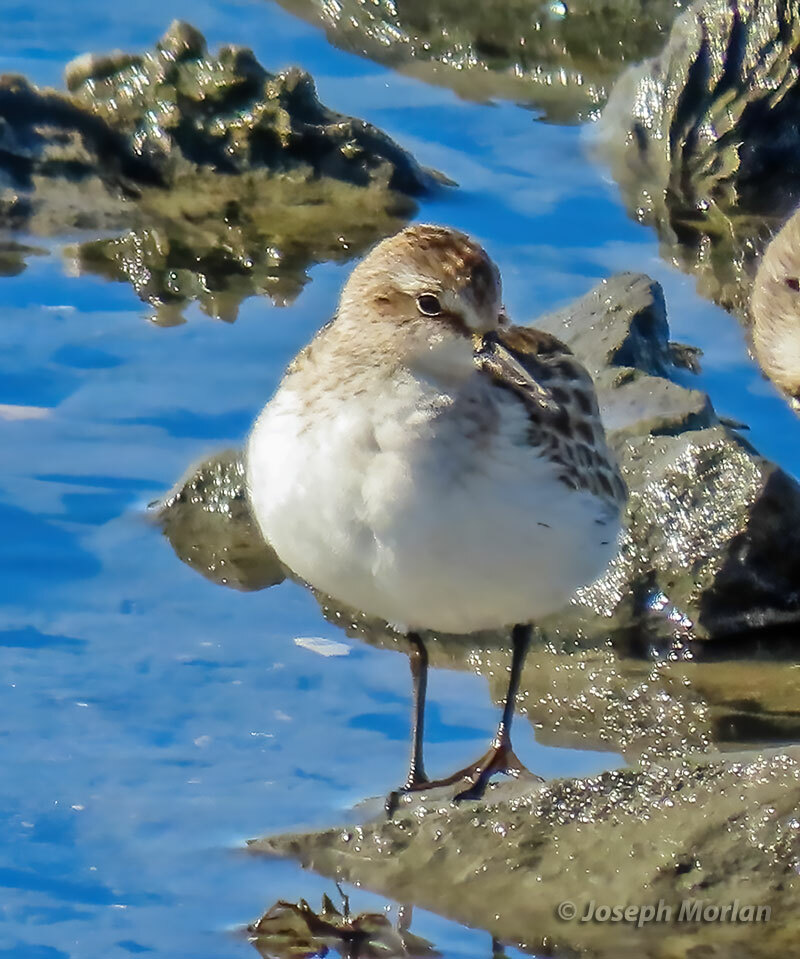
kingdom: Animalia
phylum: Chordata
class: Aves
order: Charadriiformes
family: Scolopacidae
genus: Calidris
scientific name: Calidris pusilla
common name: Semipalmated sandpiper
